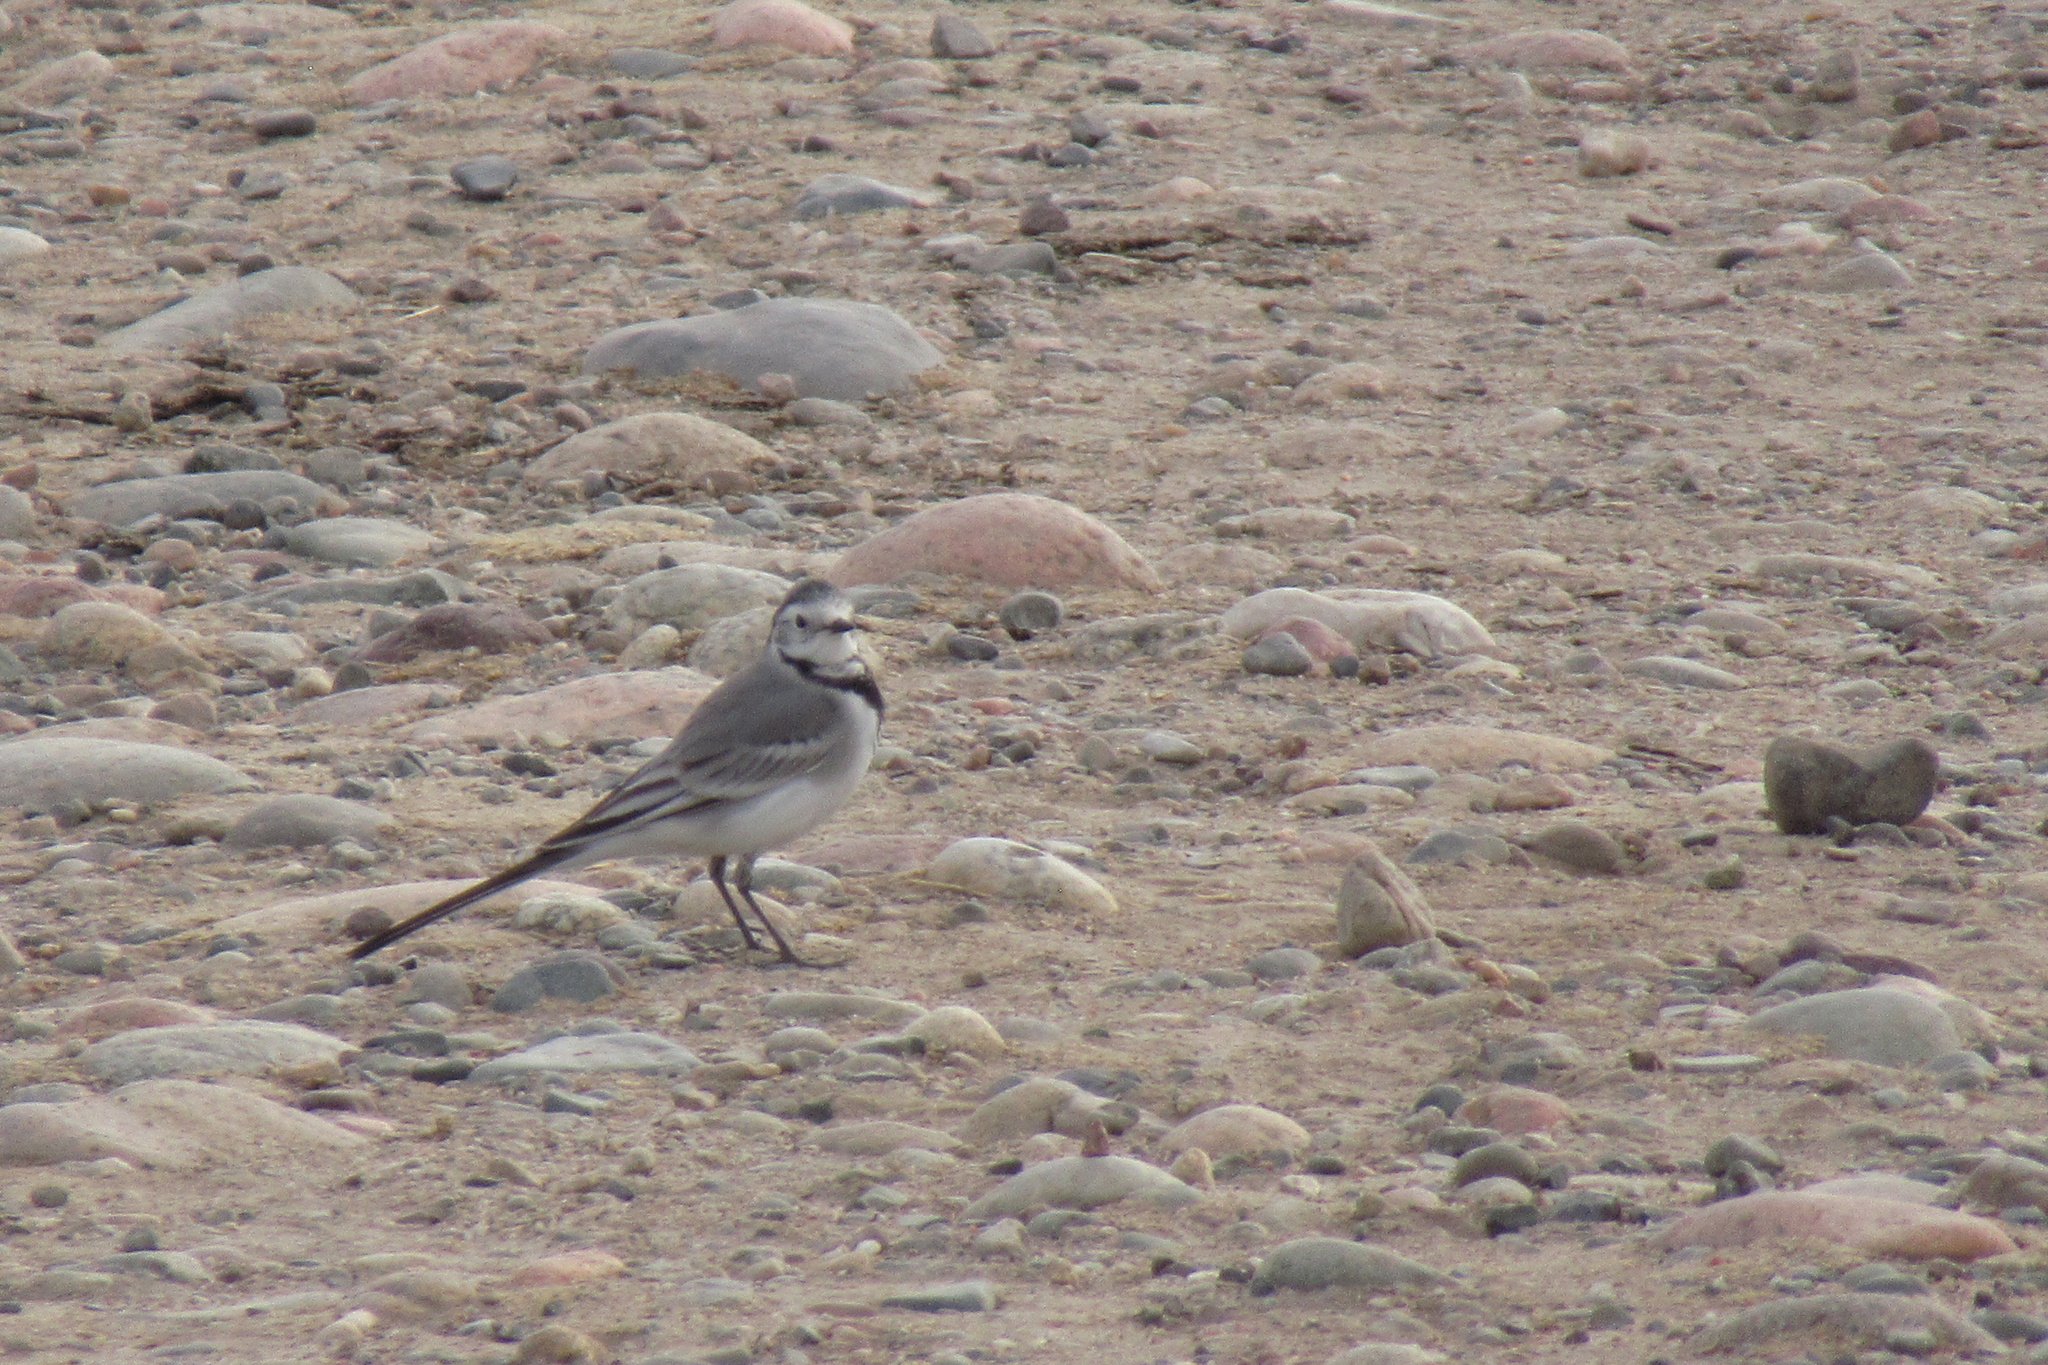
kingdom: Animalia
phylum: Chordata
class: Aves
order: Passeriformes
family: Motacillidae
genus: Motacilla
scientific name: Motacilla alba
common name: White wagtail
